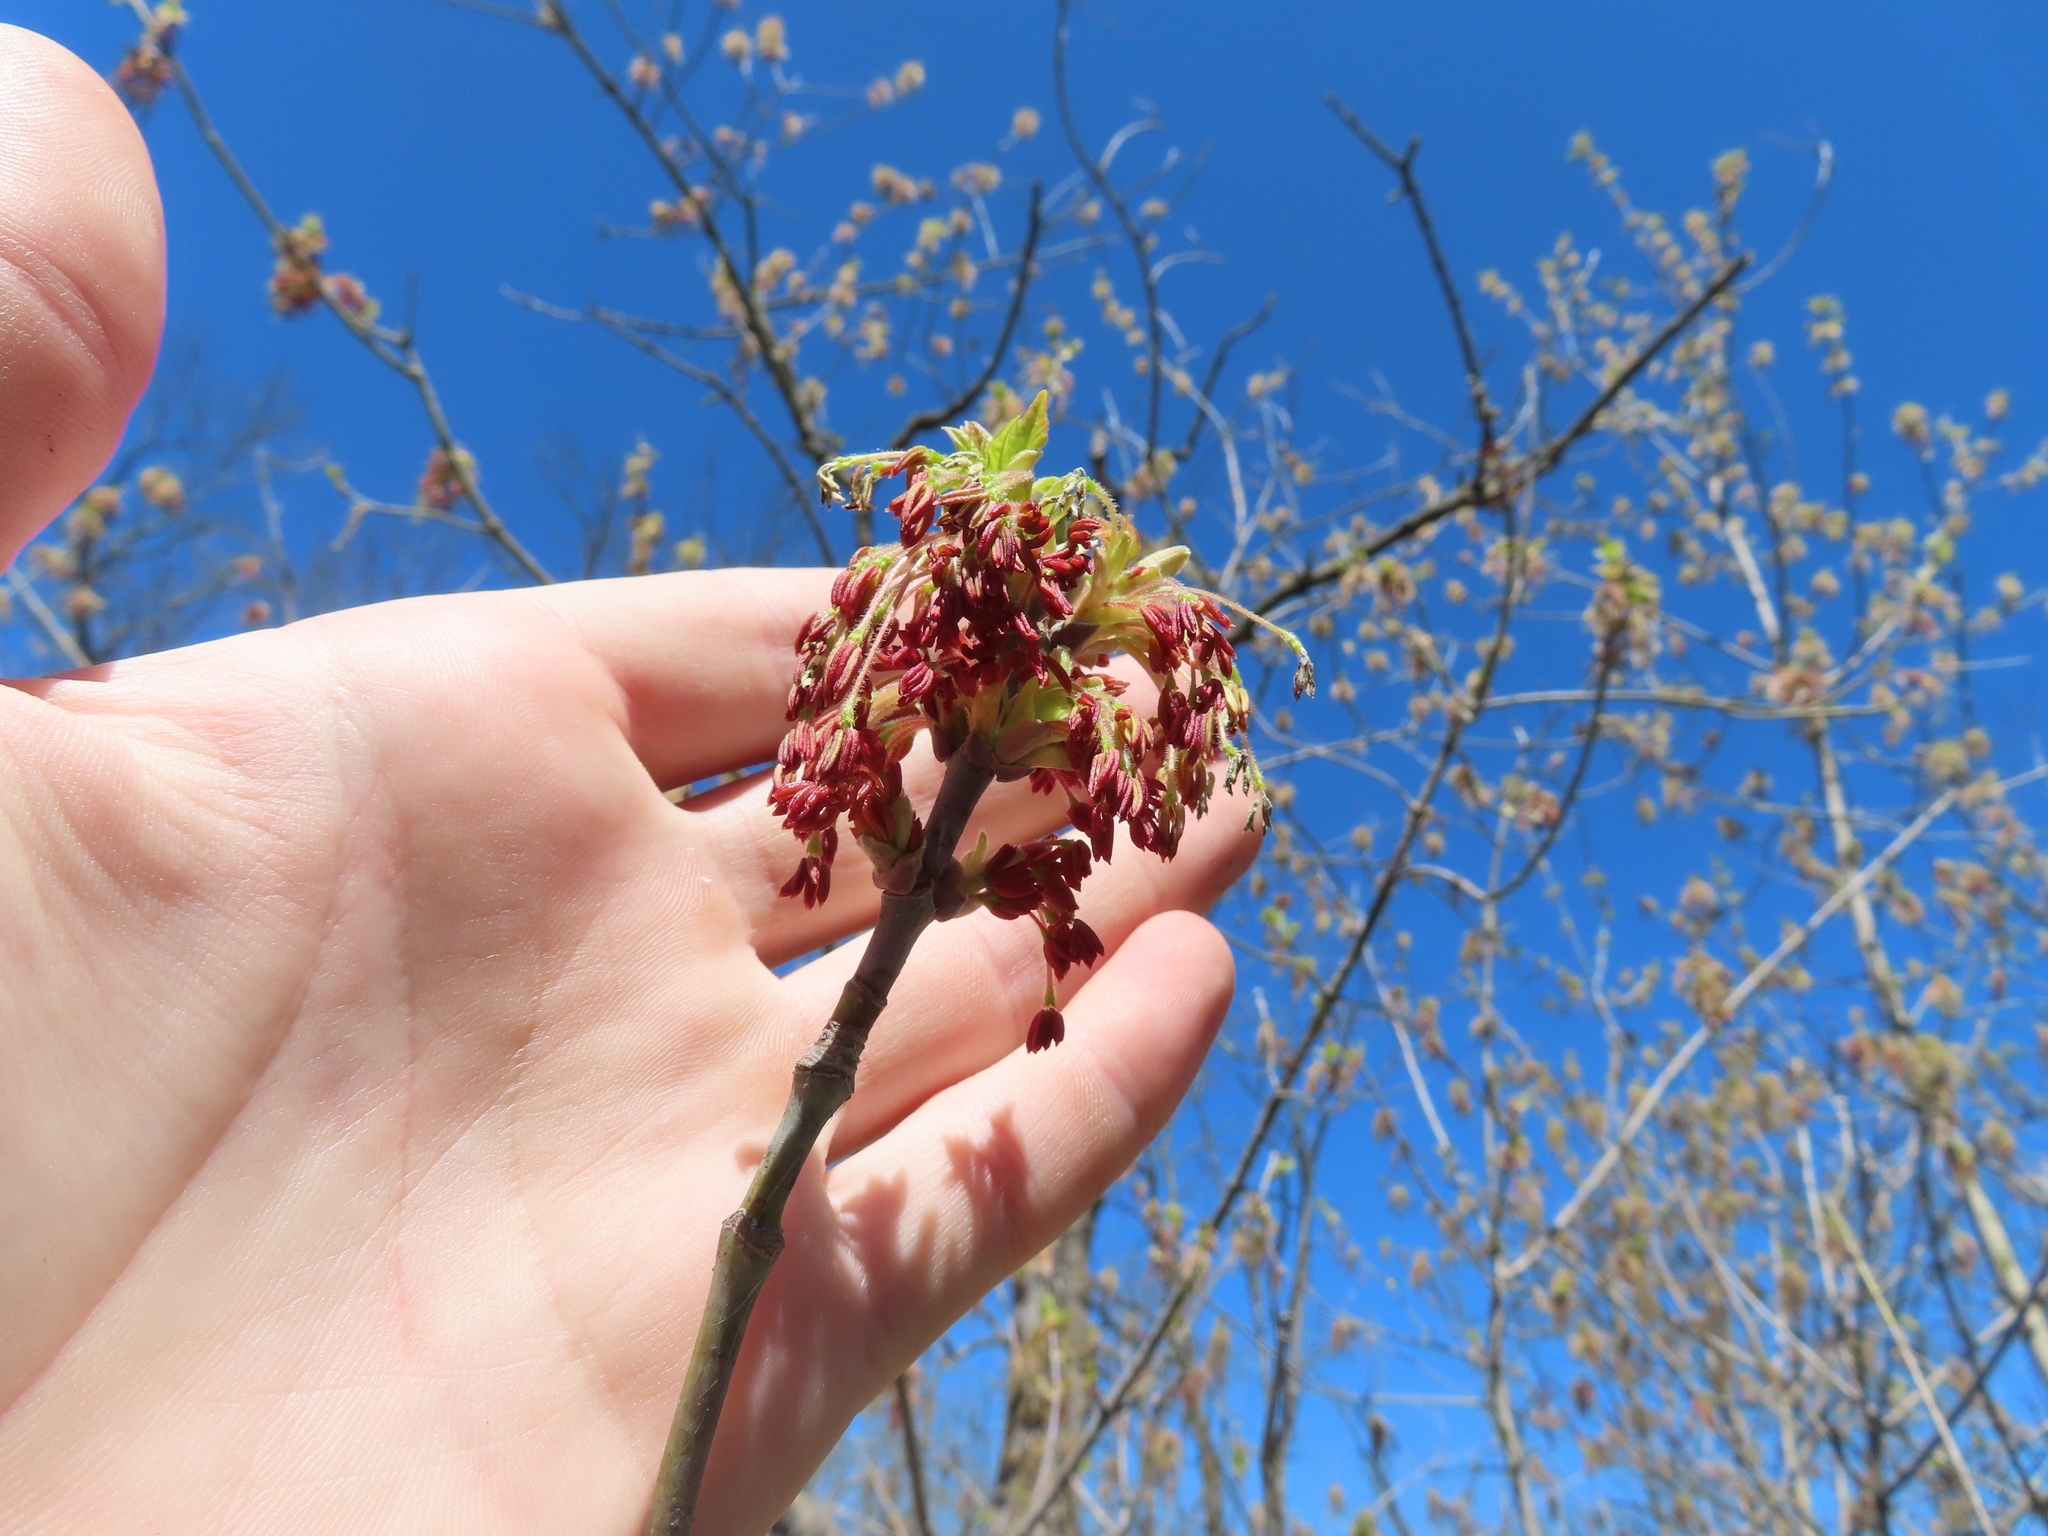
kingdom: Plantae
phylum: Tracheophyta
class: Magnoliopsida
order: Sapindales
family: Sapindaceae
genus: Acer
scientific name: Acer negundo
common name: Ashleaf maple
